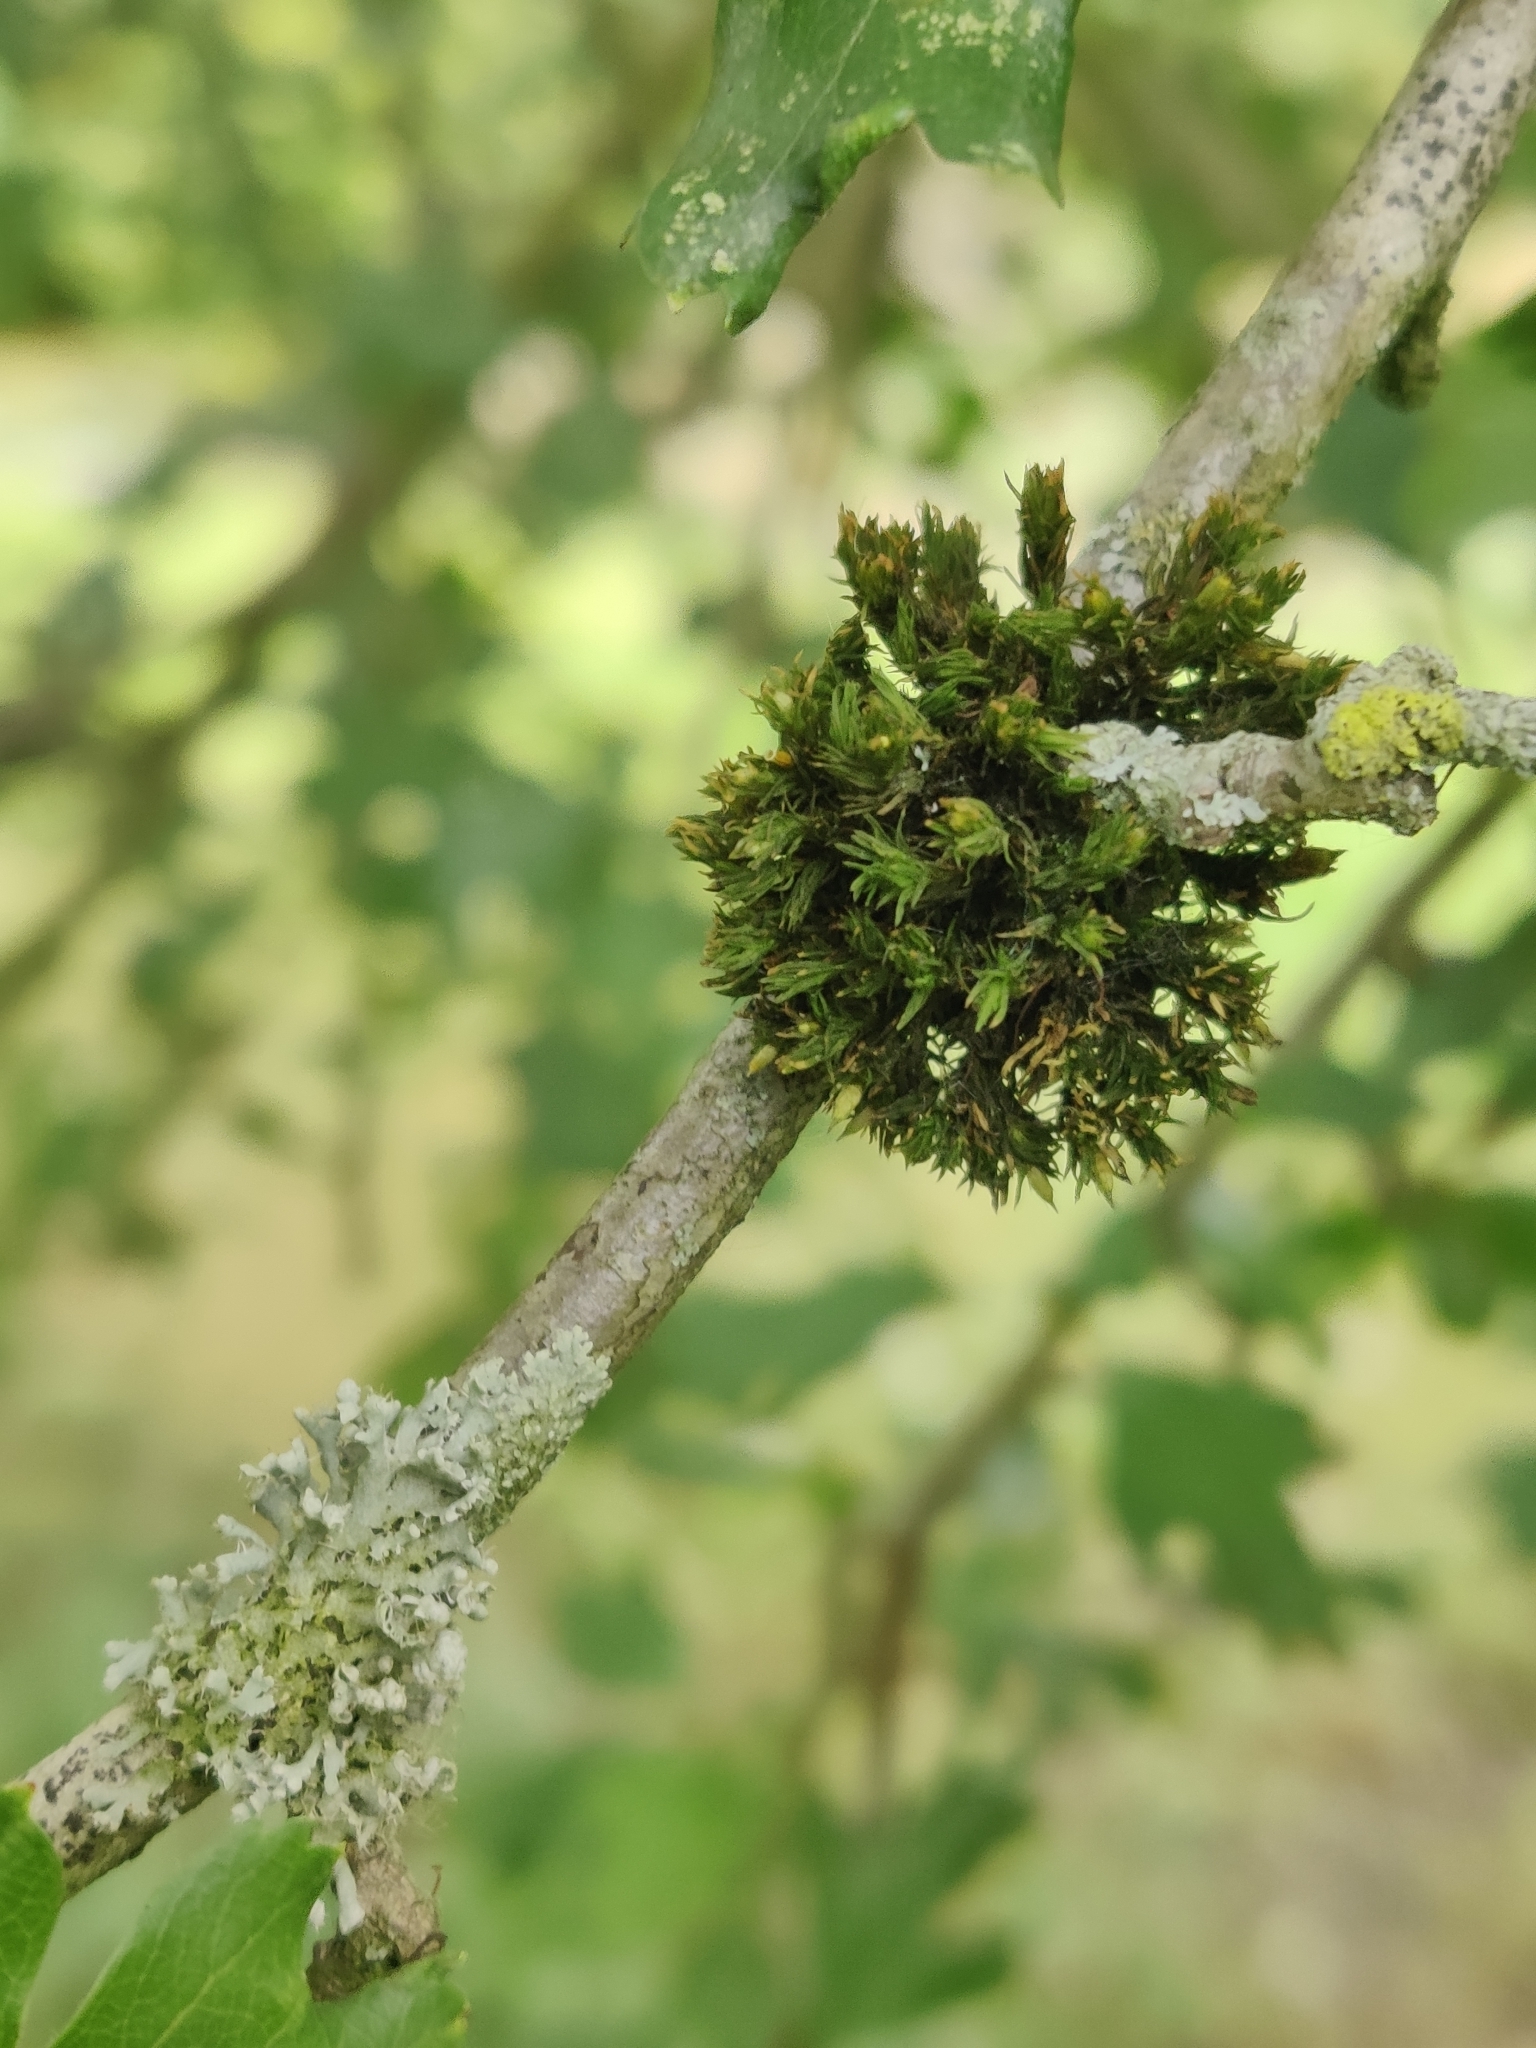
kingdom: Plantae
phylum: Bryophyta
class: Bryopsida
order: Orthotrichales
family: Orthotrichaceae
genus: Lewinskya
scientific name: Lewinskya affinis
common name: Wood bristle-moss
